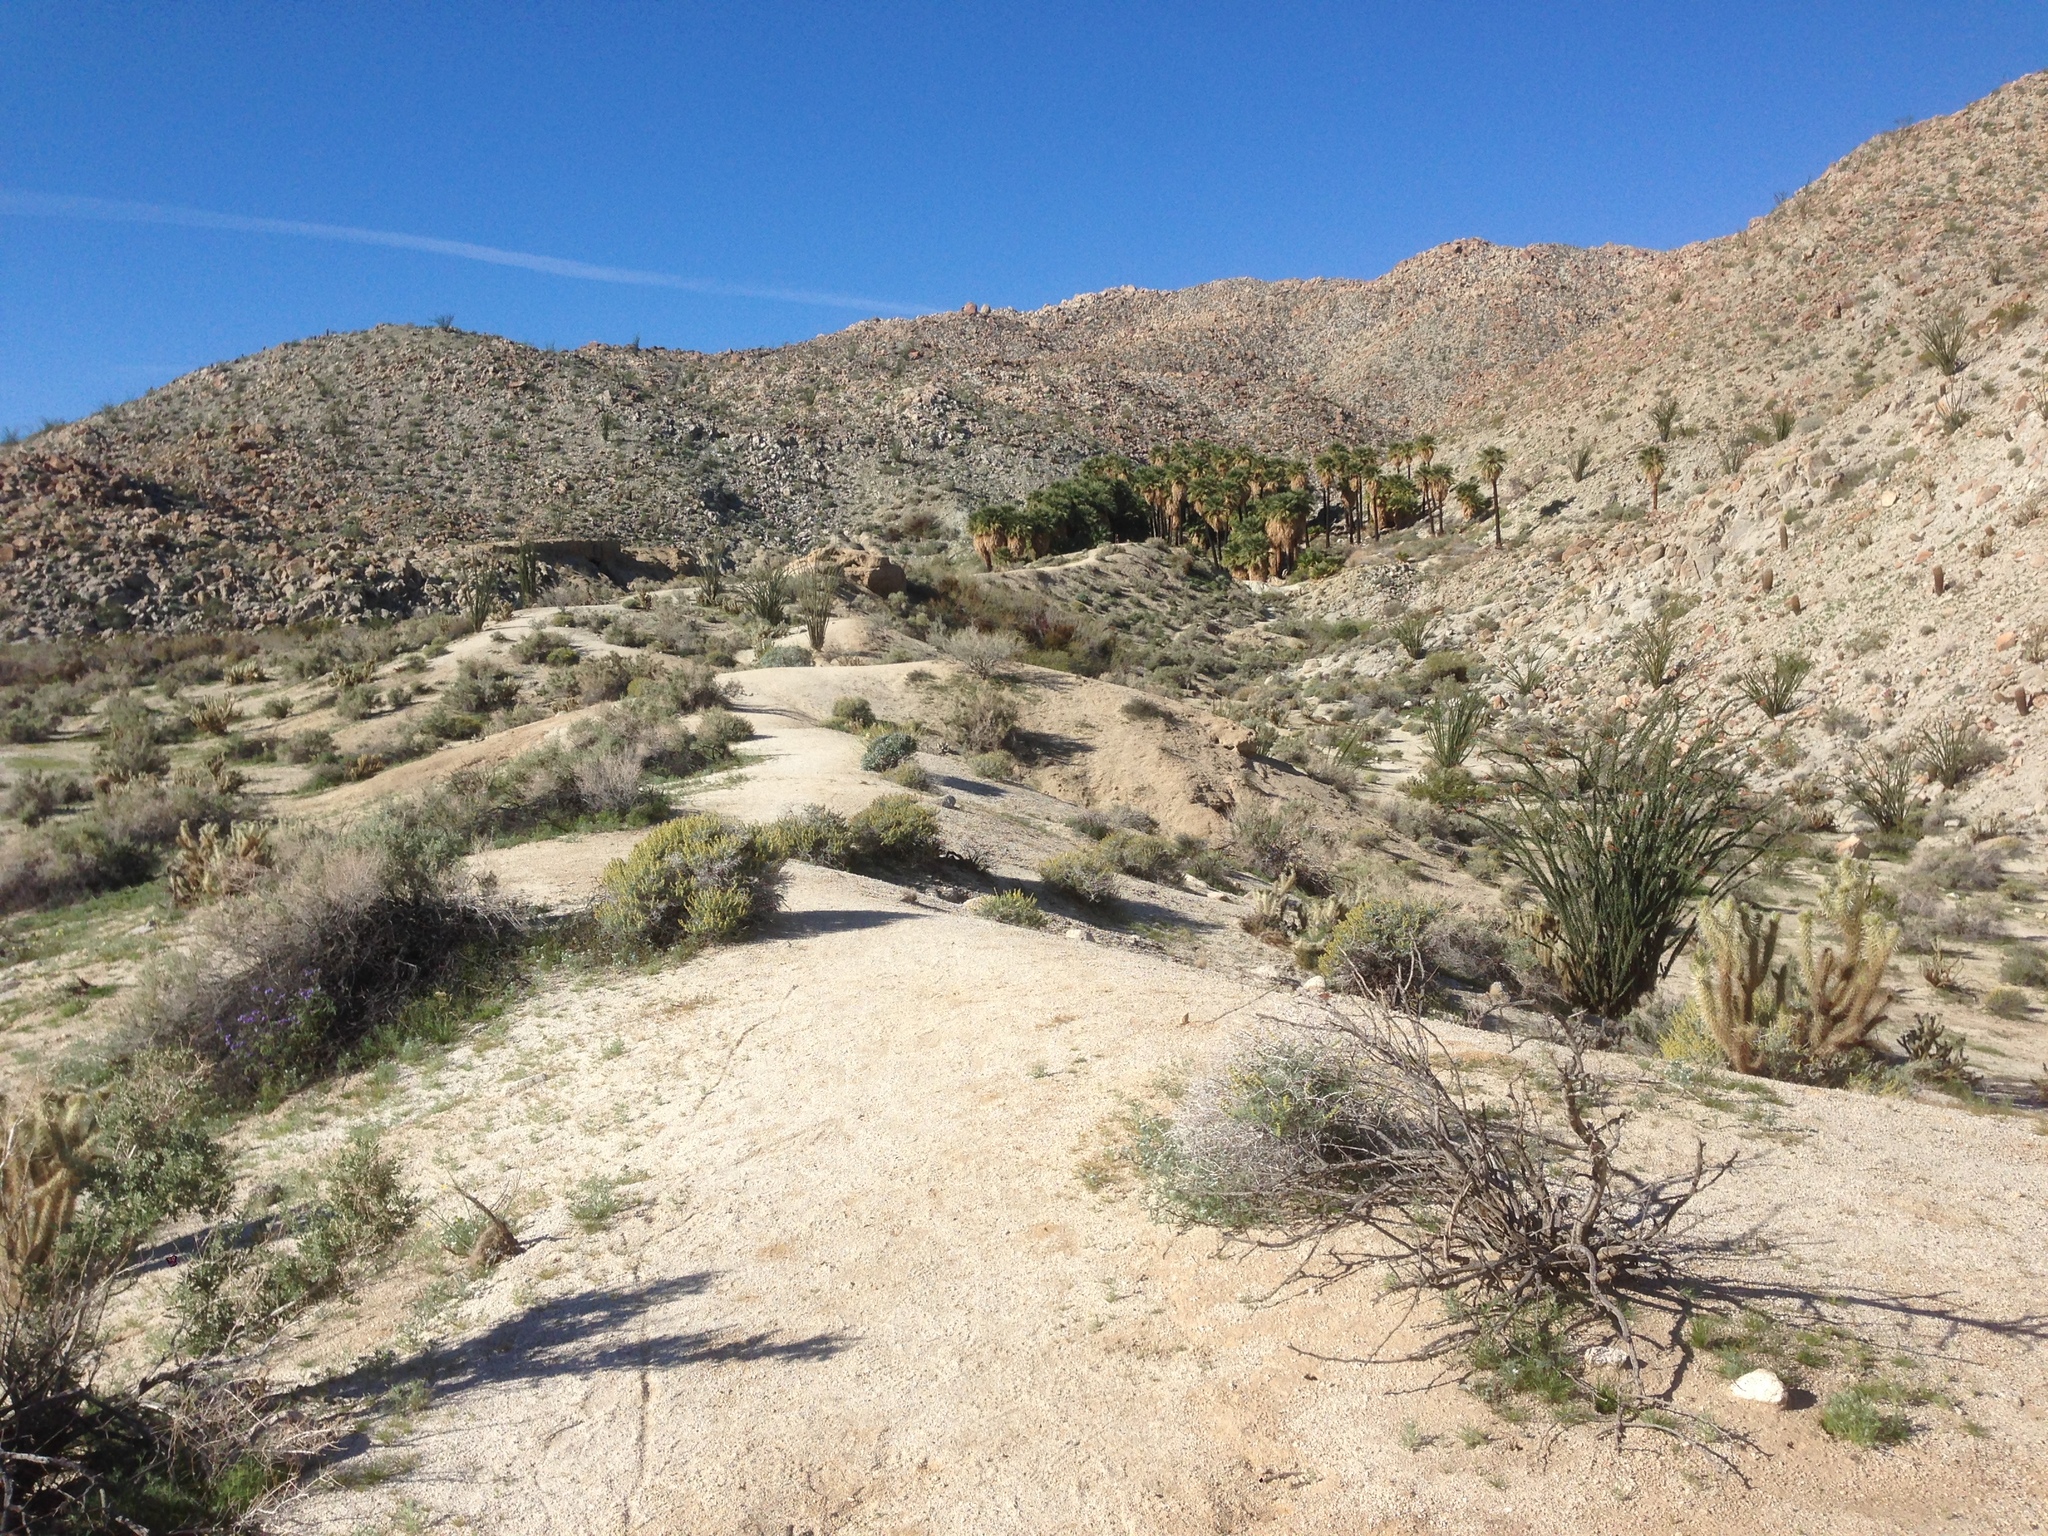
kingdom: Plantae
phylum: Tracheophyta
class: Liliopsida
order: Arecales
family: Arecaceae
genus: Washingtonia
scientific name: Washingtonia filifera
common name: California fan palm
